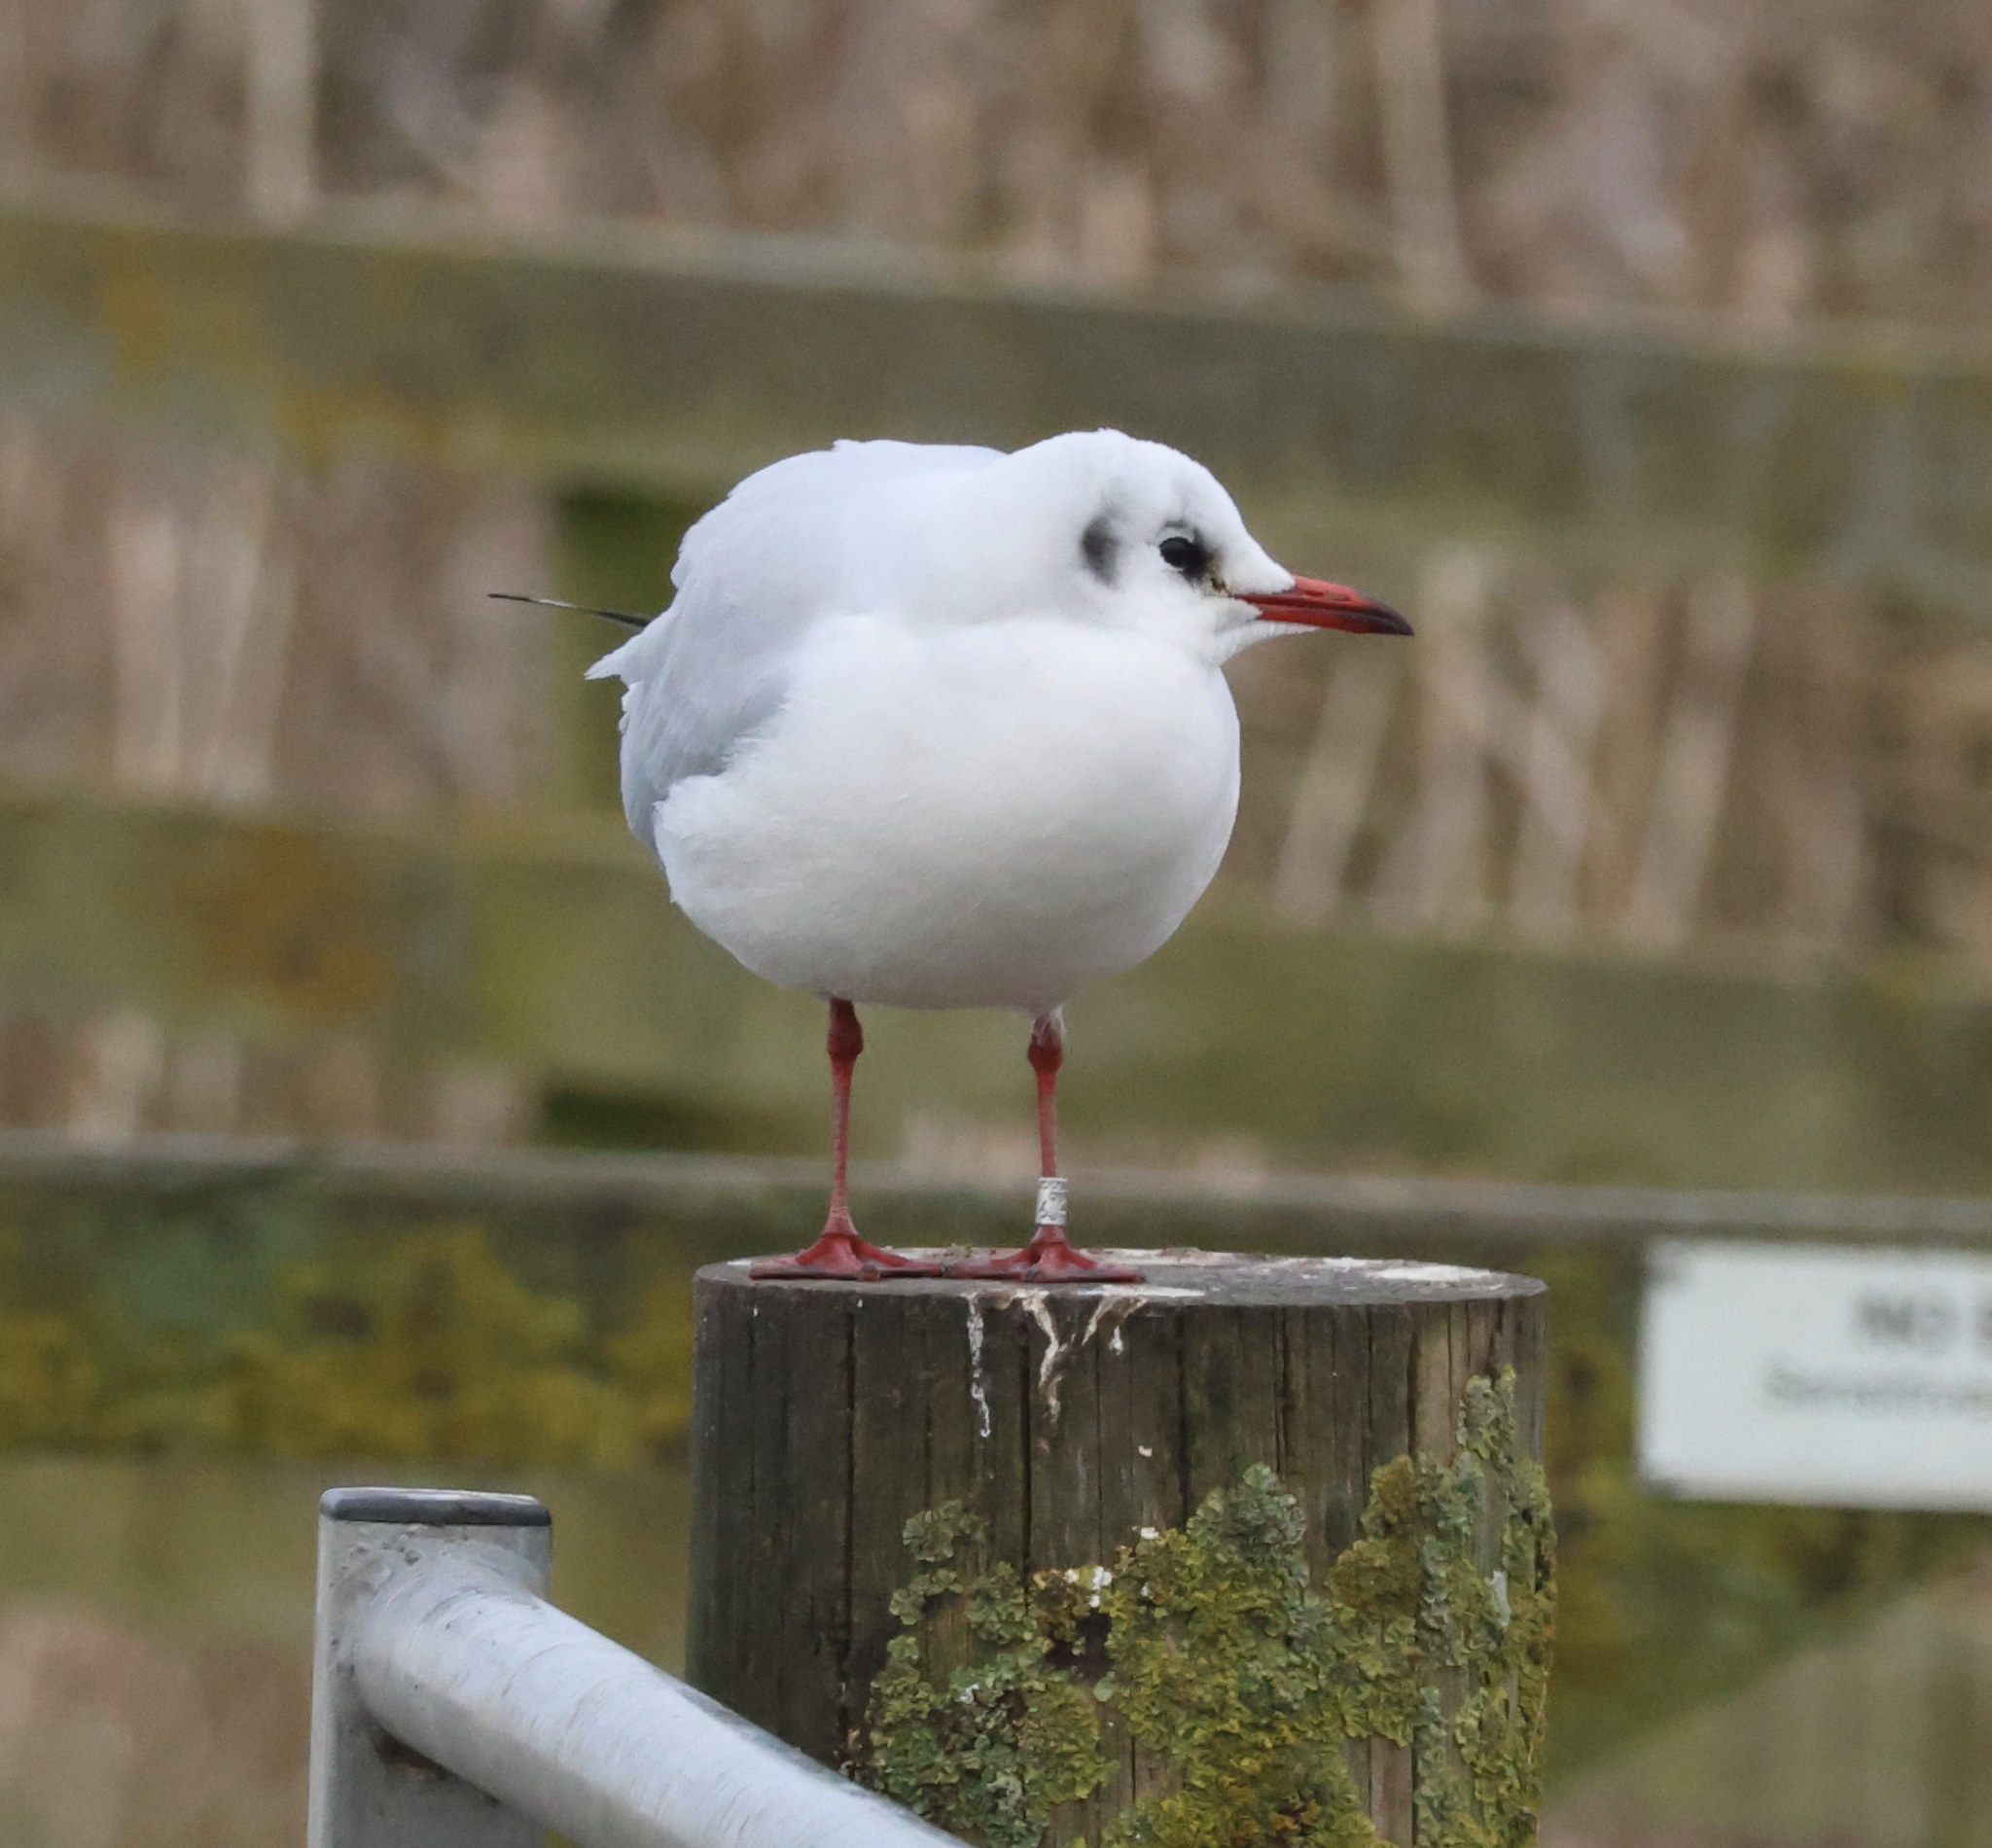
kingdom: Animalia
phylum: Chordata
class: Aves
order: Charadriiformes
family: Laridae
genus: Chroicocephalus
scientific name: Chroicocephalus ridibundus
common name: Black-headed gull
